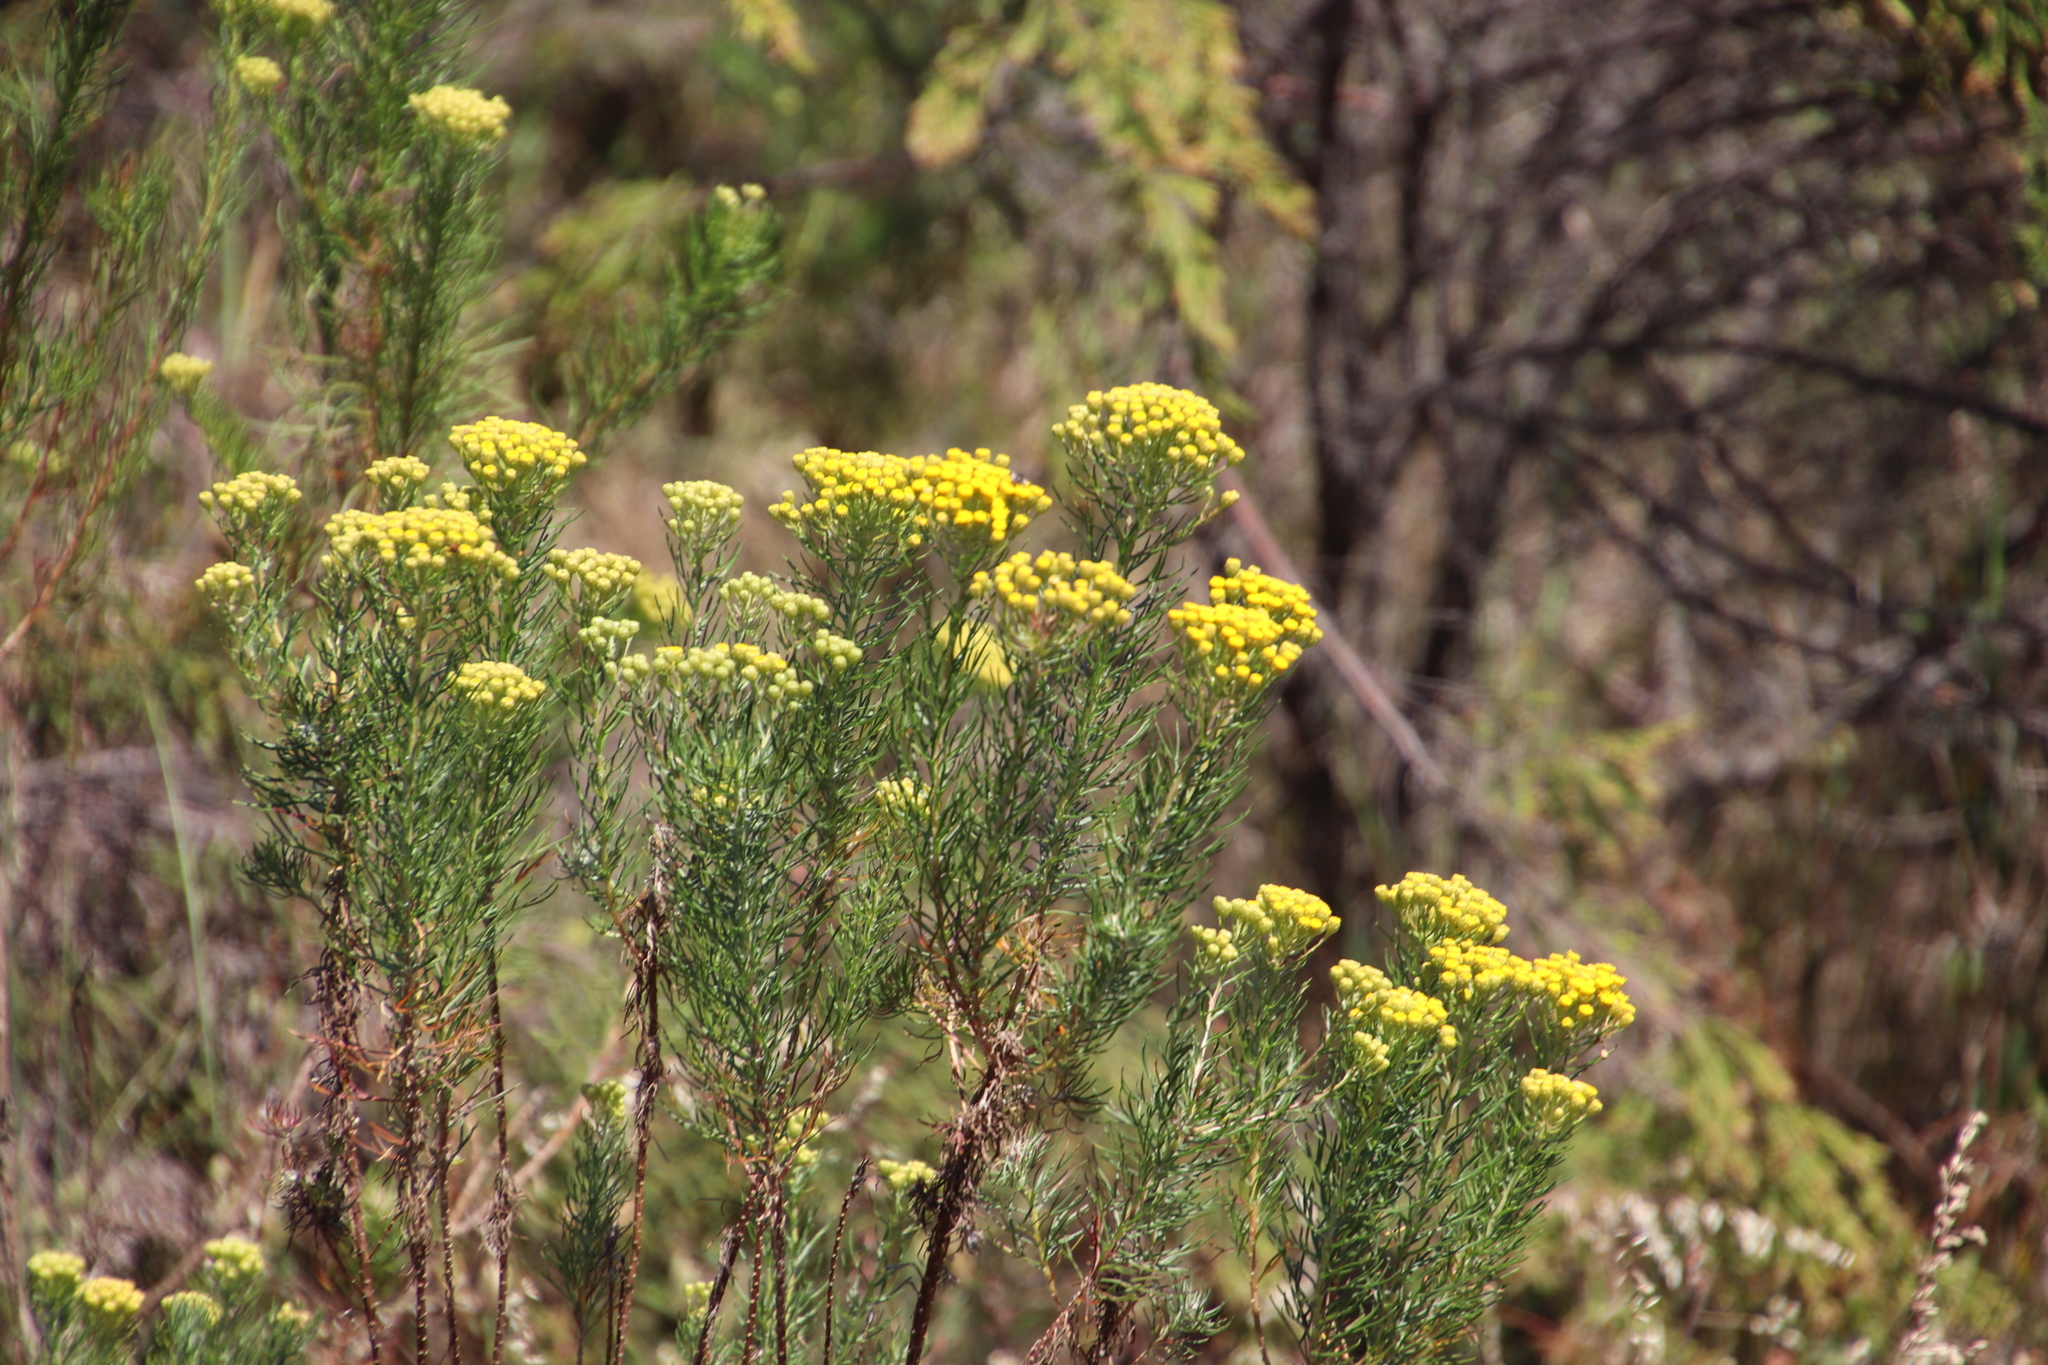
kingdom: Plantae
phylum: Tracheophyta
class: Magnoliopsida
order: Asterales
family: Asteraceae
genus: Athanasia
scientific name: Athanasia crithmifolia
